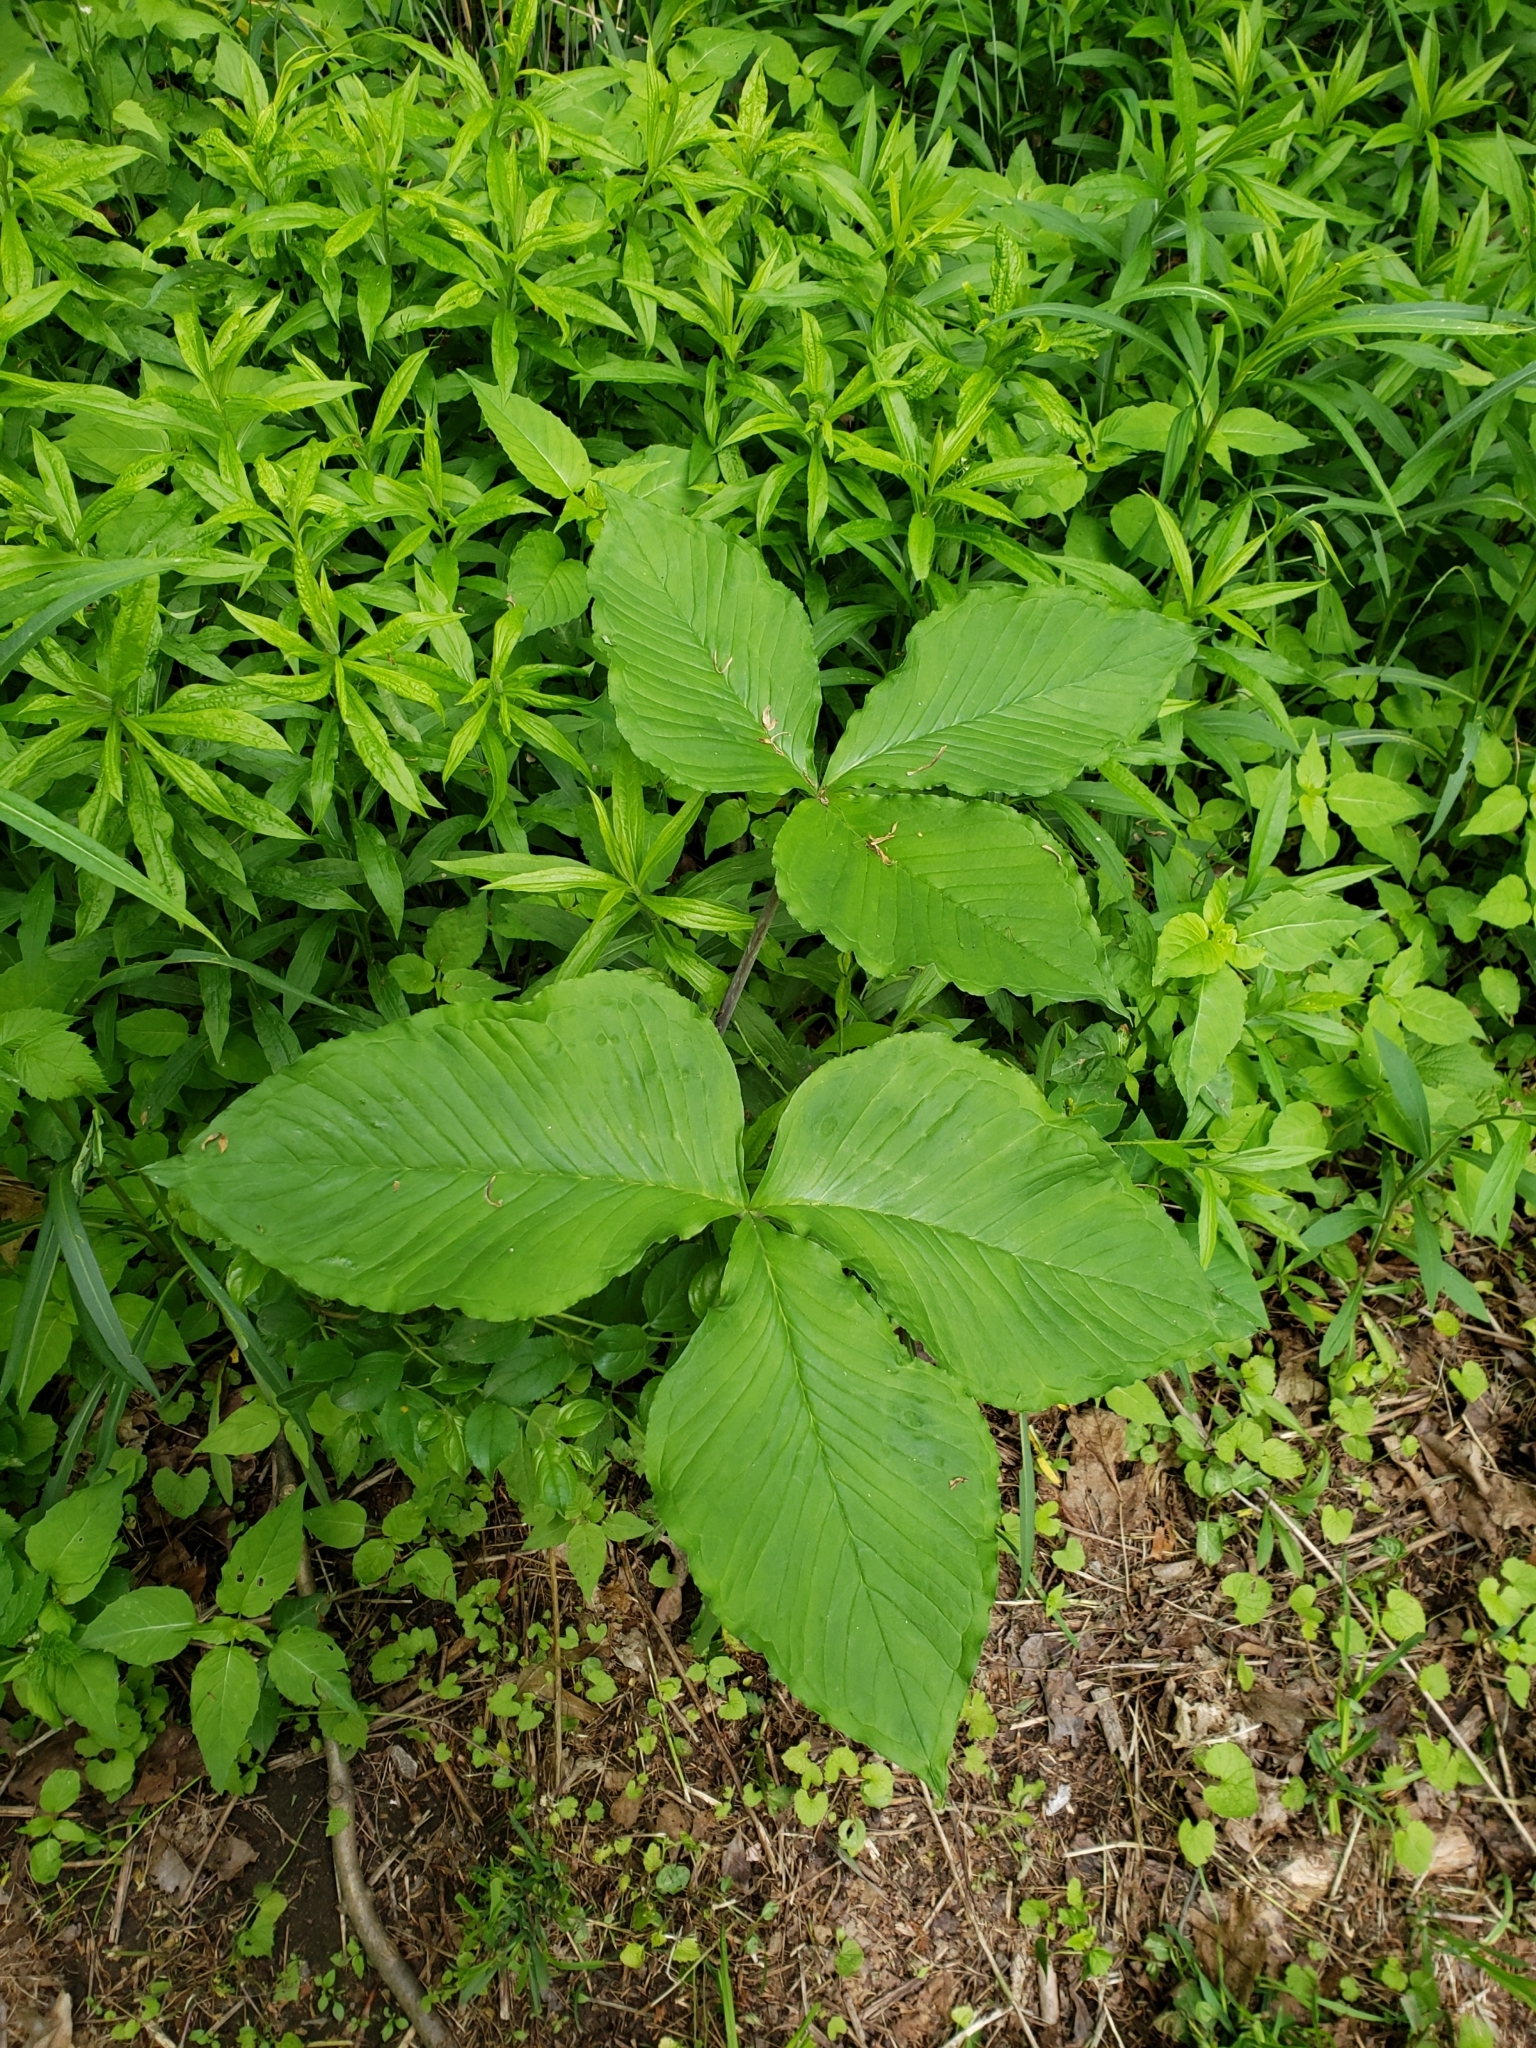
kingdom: Plantae
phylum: Tracheophyta
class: Liliopsida
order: Alismatales
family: Araceae
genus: Arisaema
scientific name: Arisaema triphyllum
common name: Jack-in-the-pulpit
